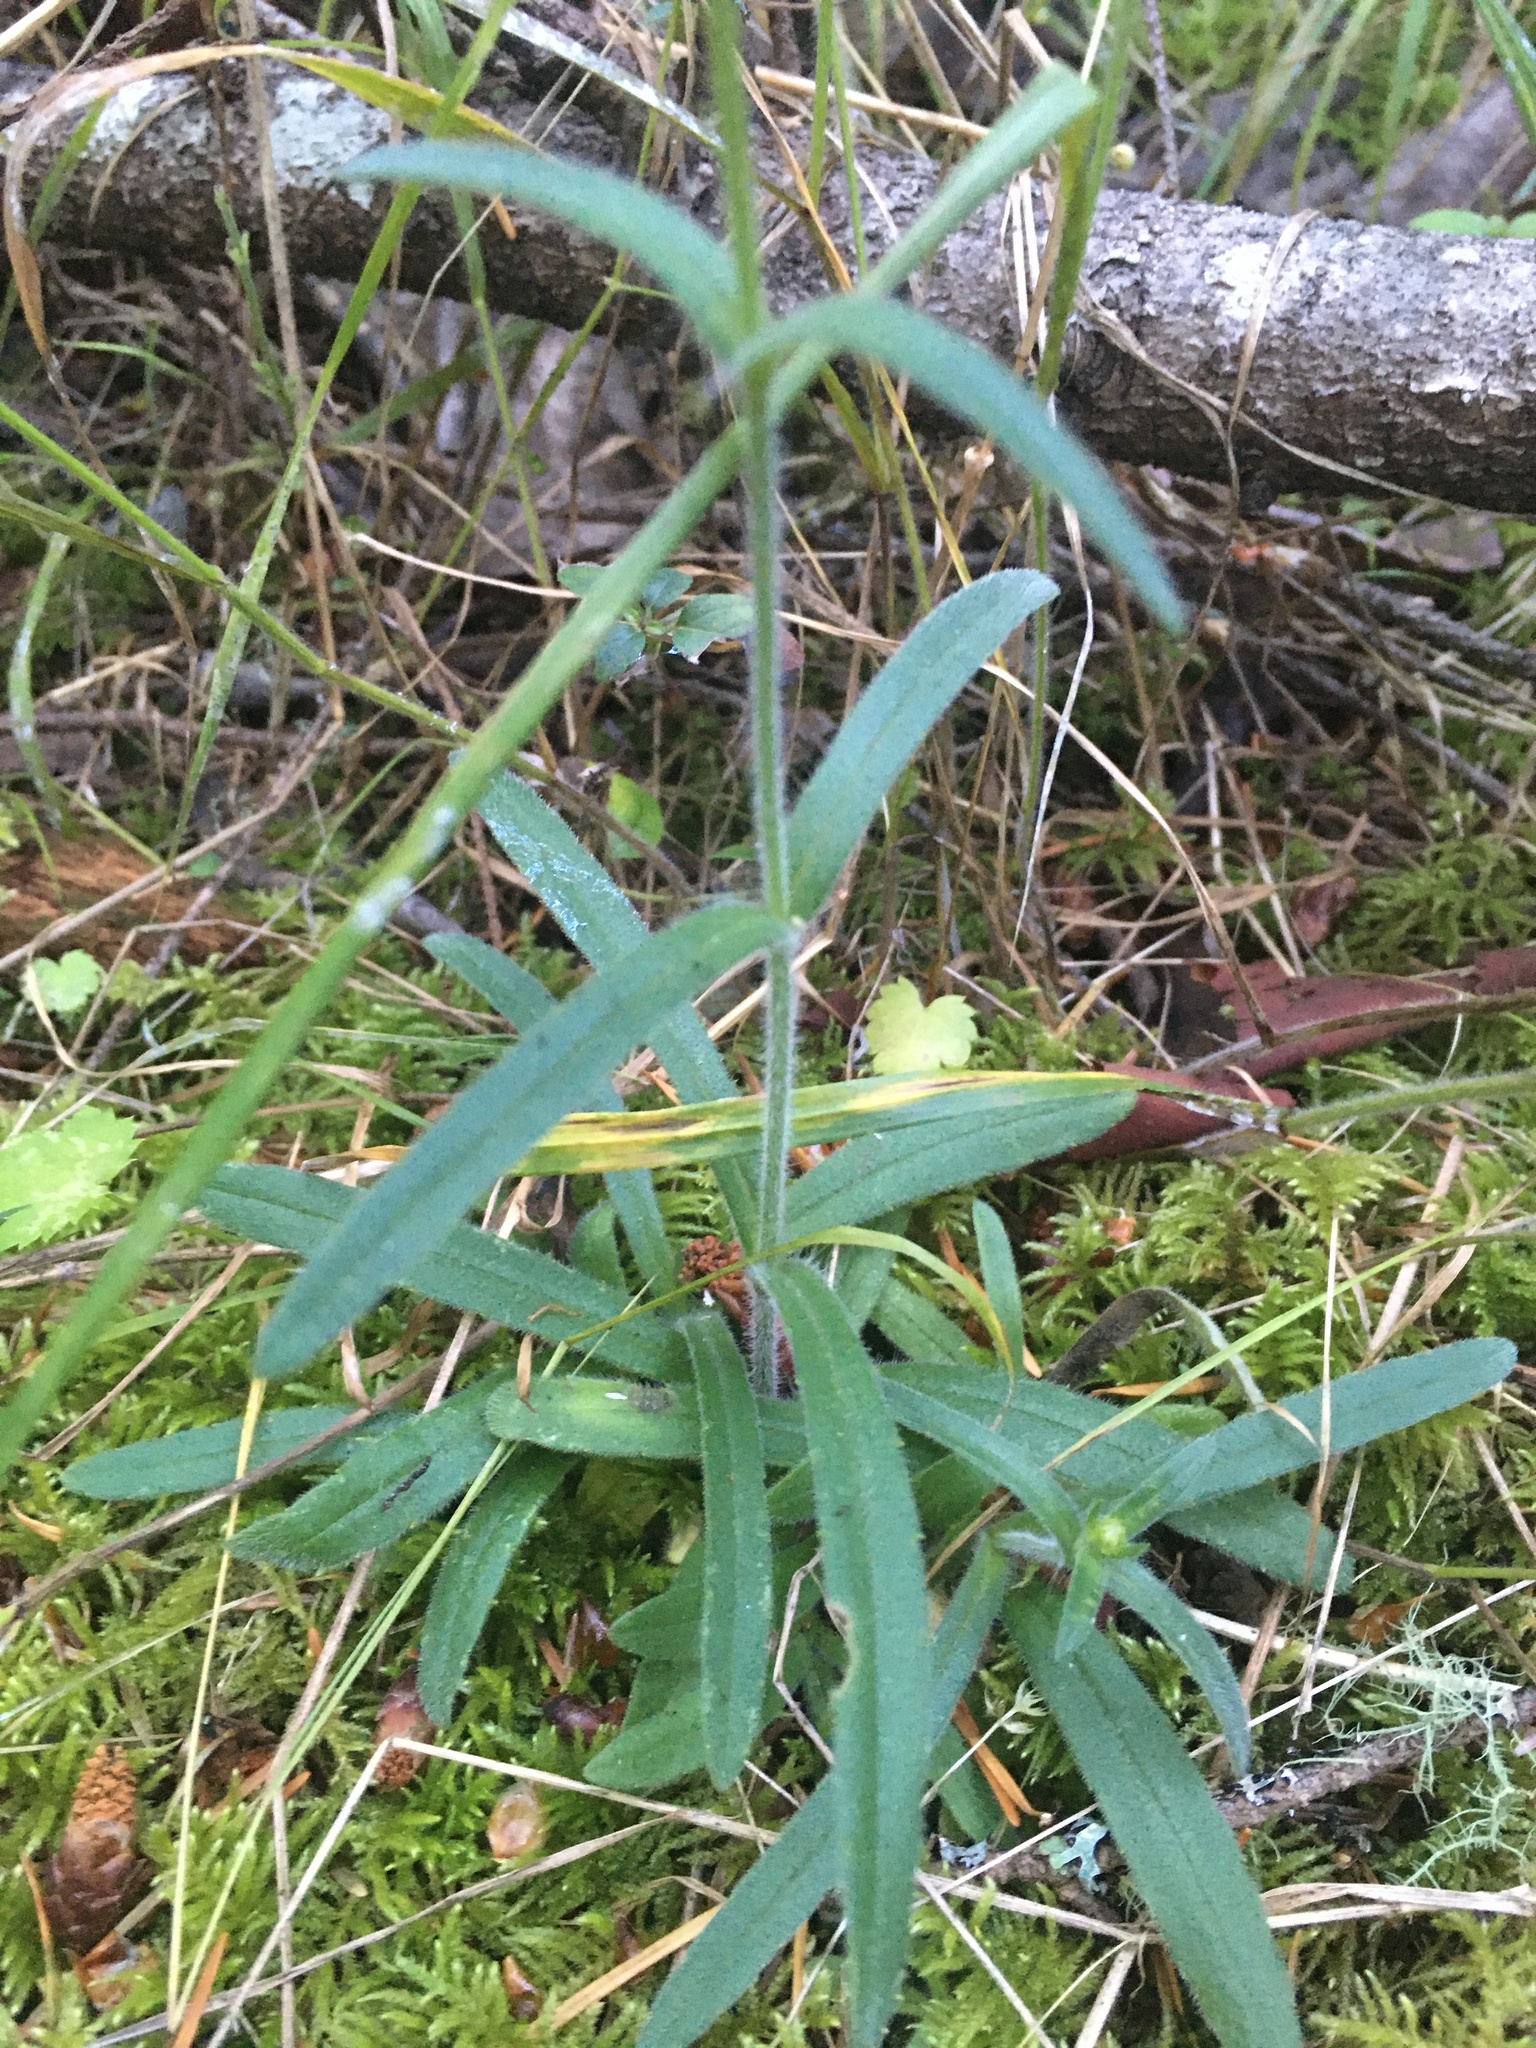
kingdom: Plantae
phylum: Tracheophyta
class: Magnoliopsida
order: Asterales
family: Asteraceae
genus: Anisocarpus
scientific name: Anisocarpus madioides
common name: Woodland madia
